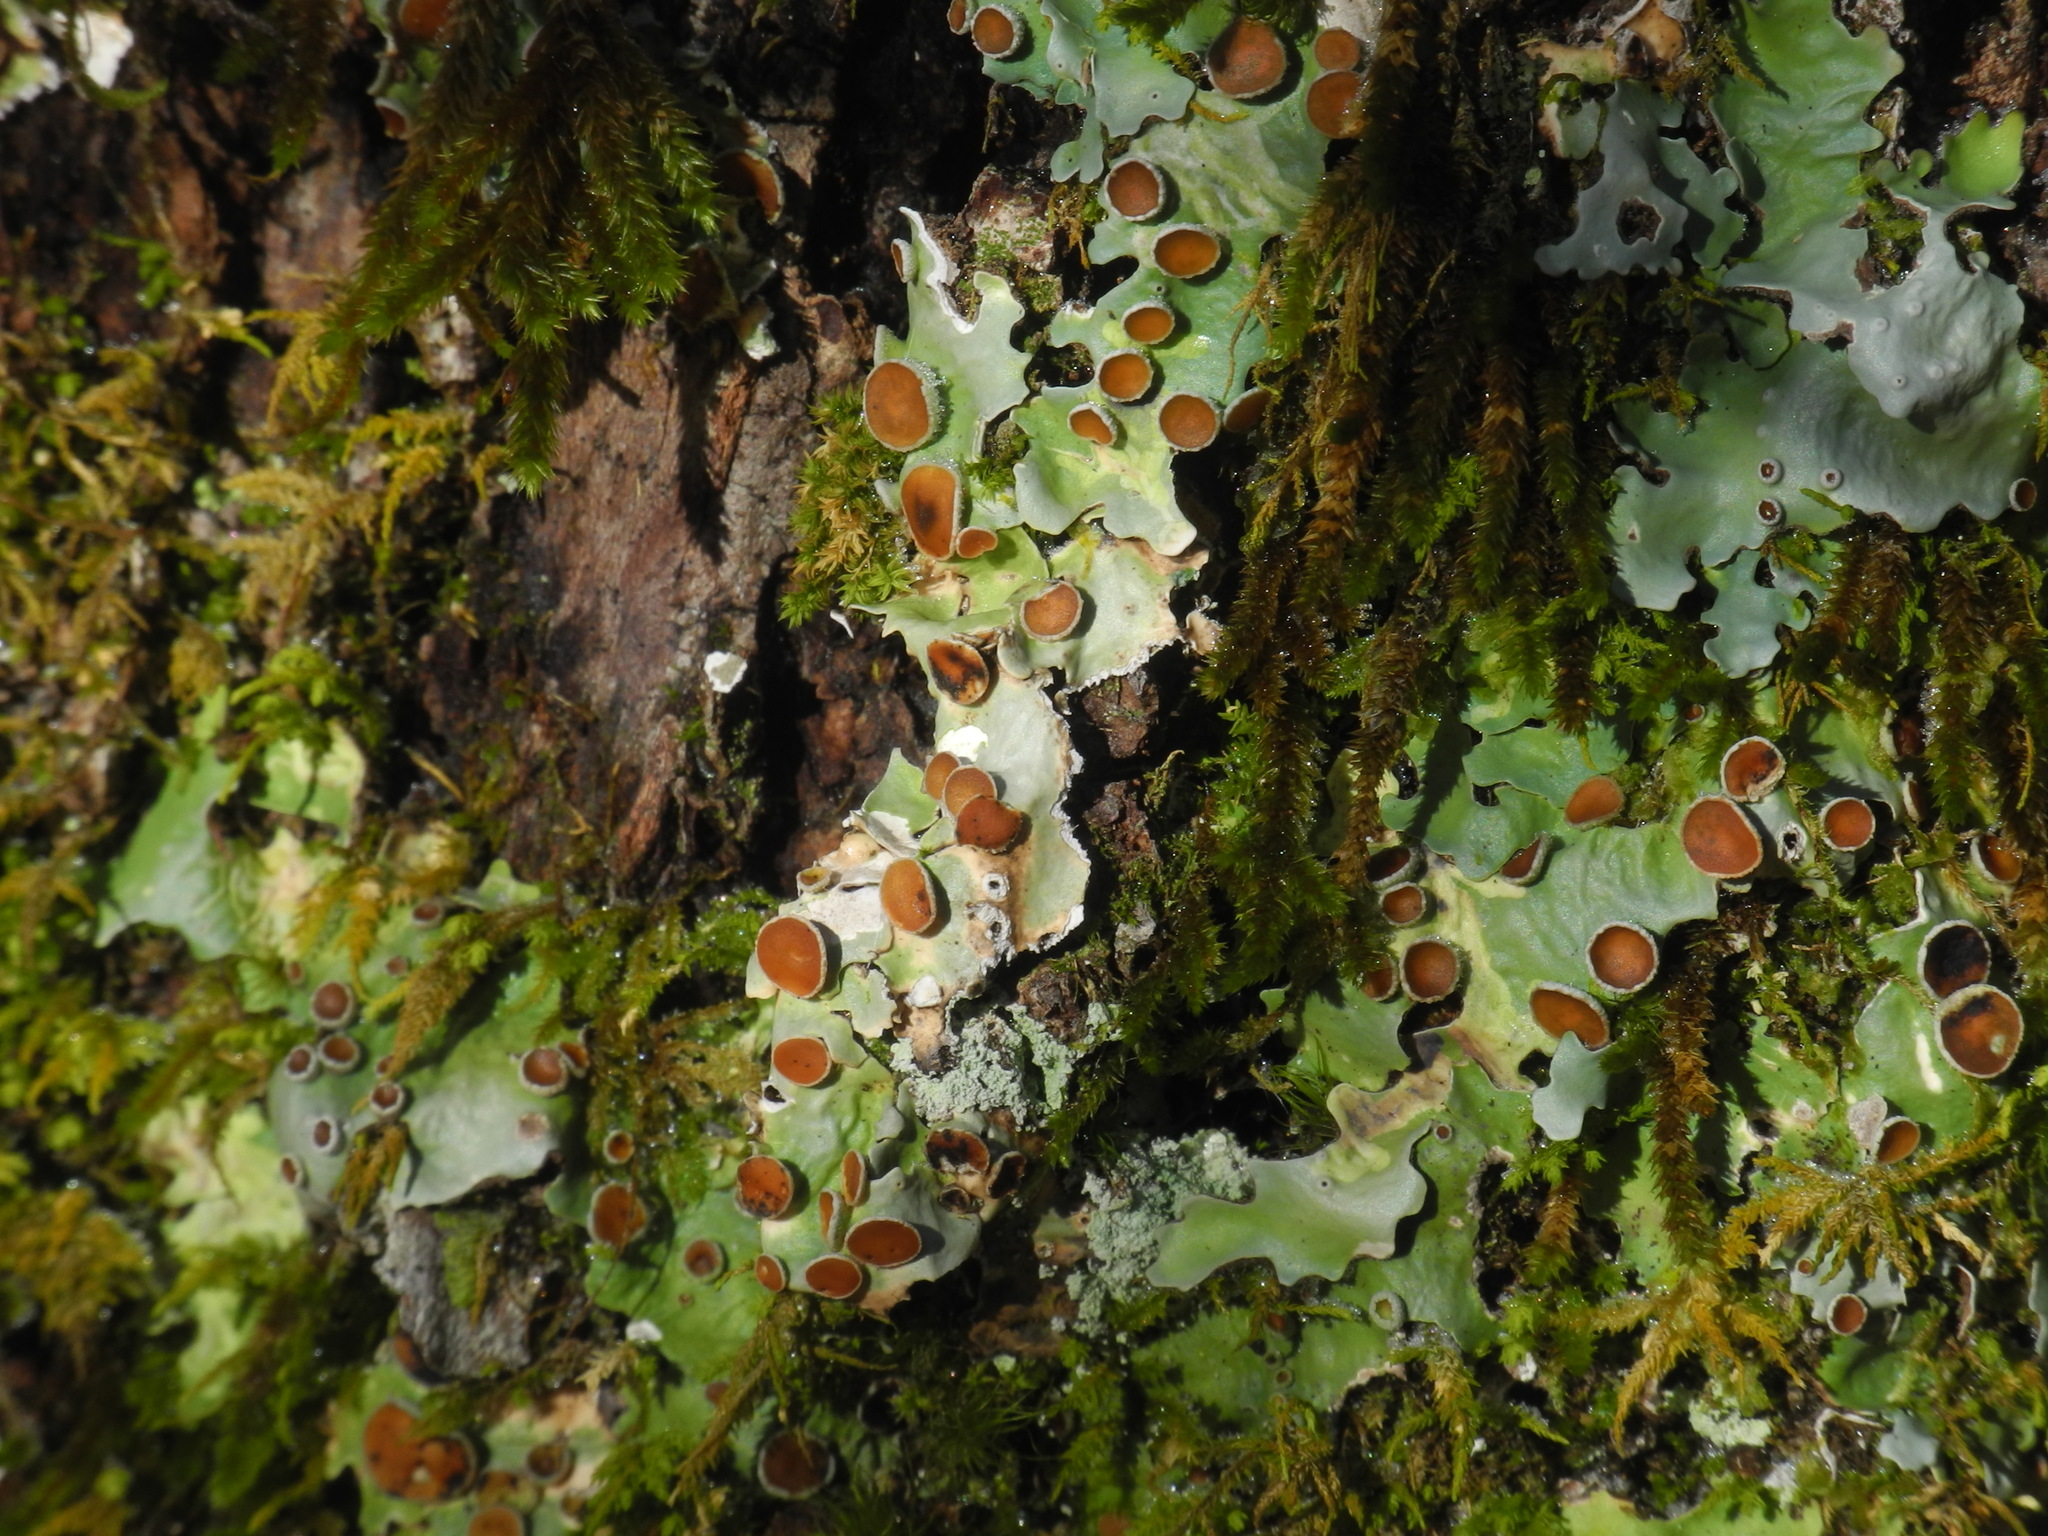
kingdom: Fungi
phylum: Ascomycota
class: Lecanoromycetes
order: Lecanorales
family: Parmeliaceae
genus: Hypotrachyna
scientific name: Hypotrachyna livida
